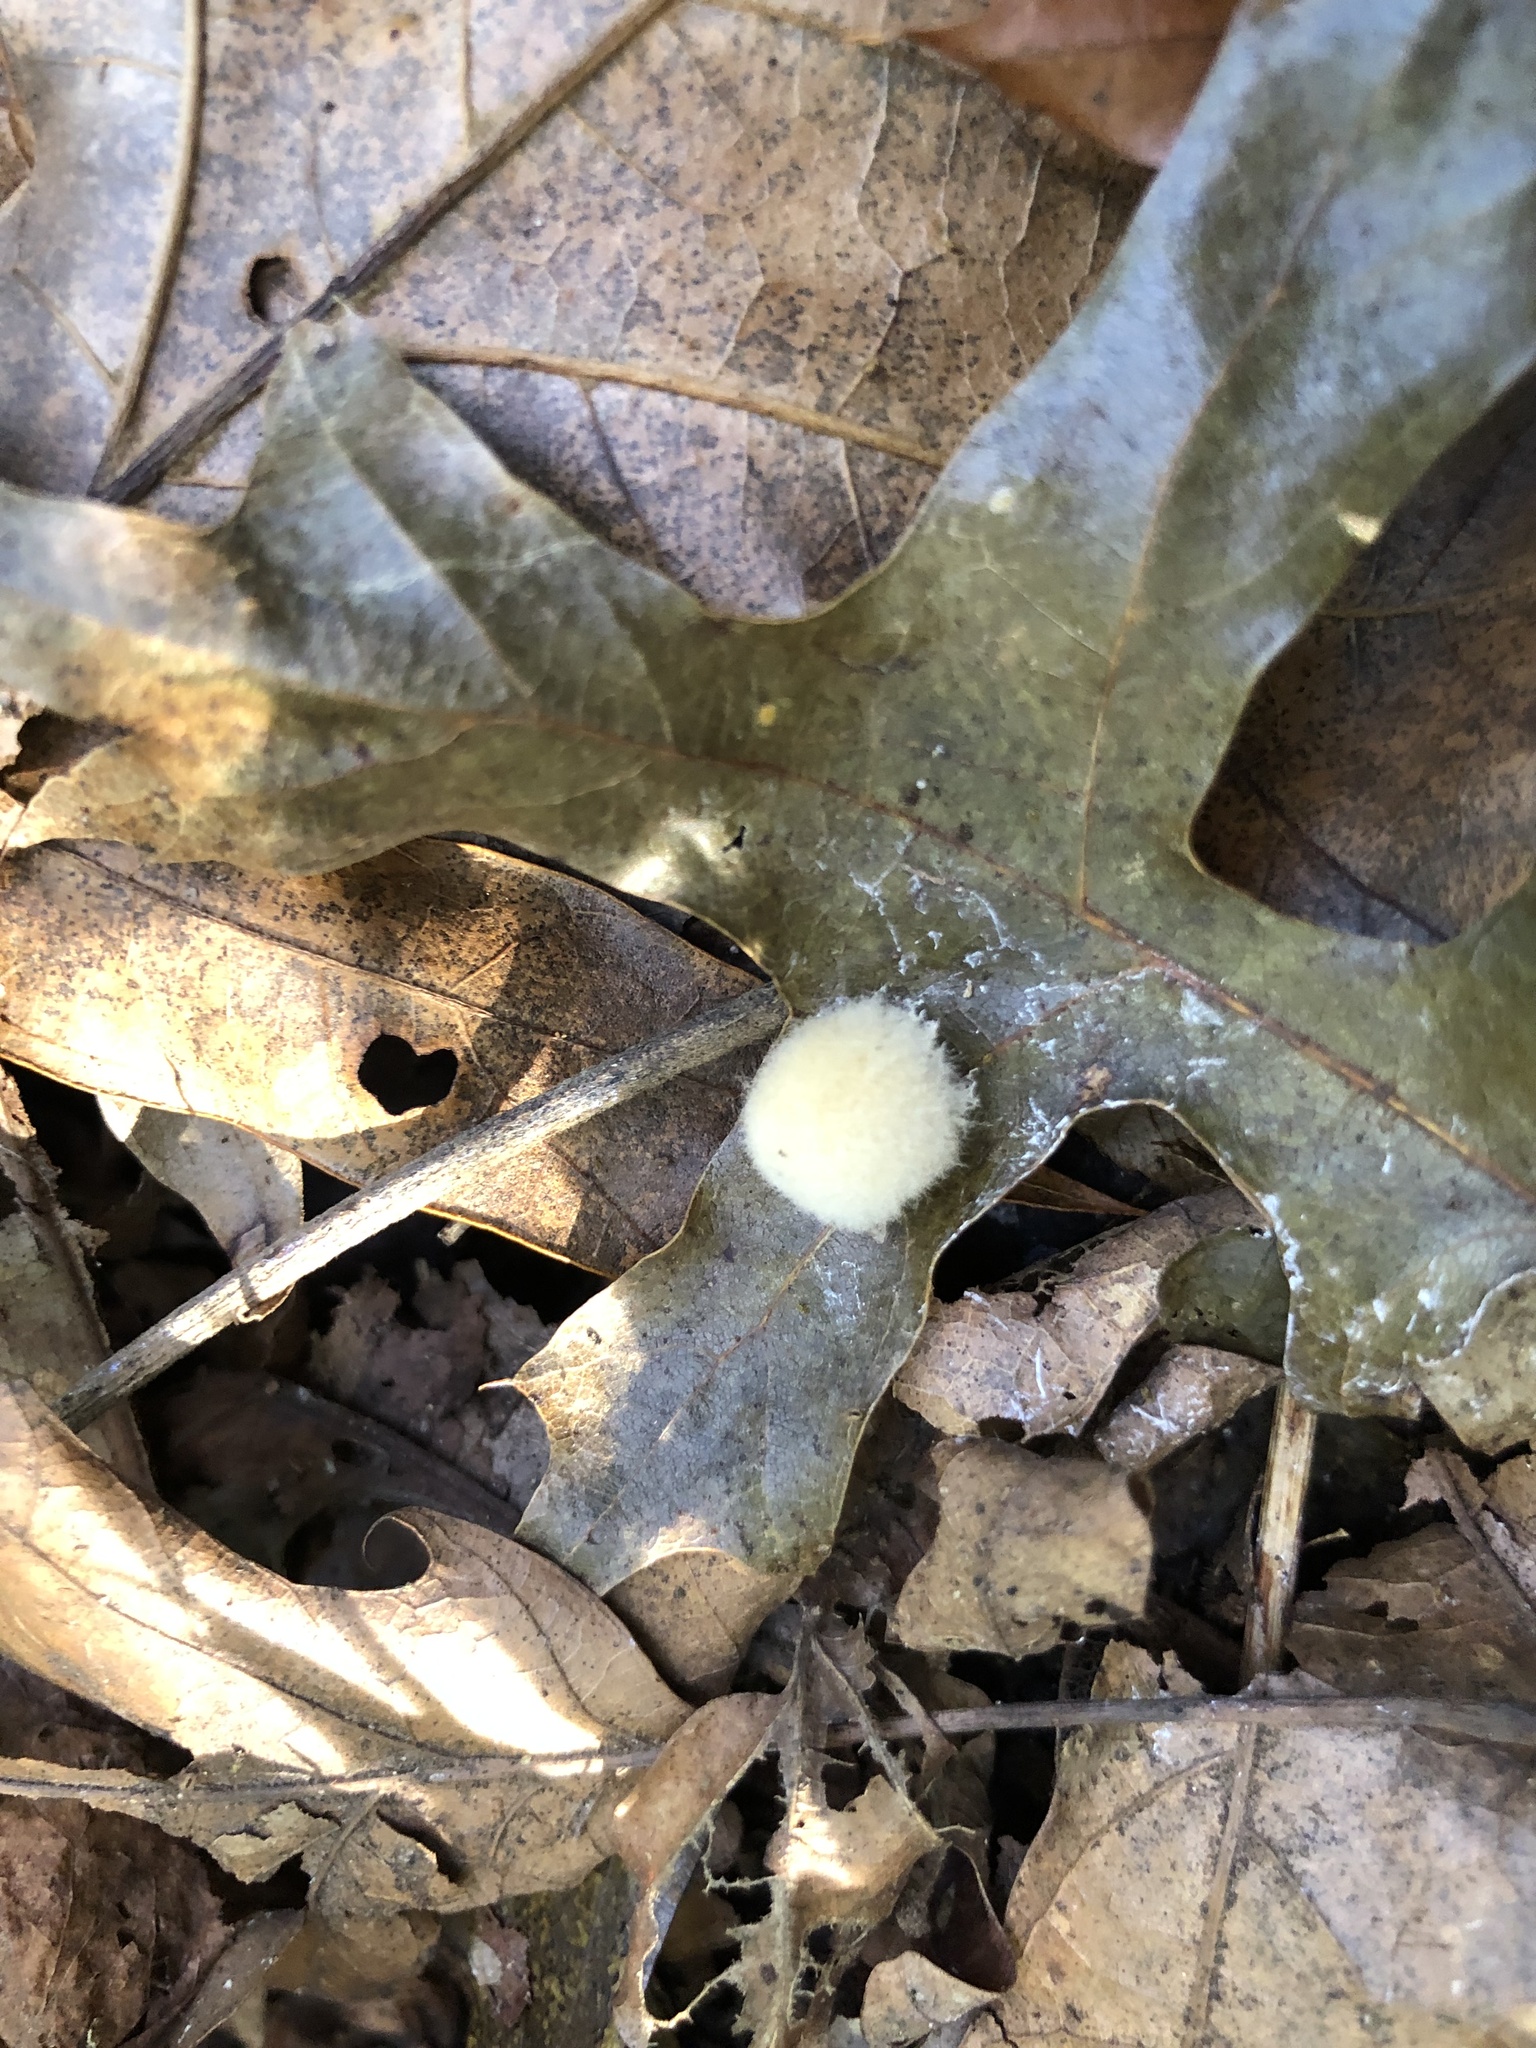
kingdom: Animalia
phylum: Arthropoda
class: Insecta
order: Hymenoptera
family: Cynipidae
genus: Callirhytis
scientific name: Callirhytis
